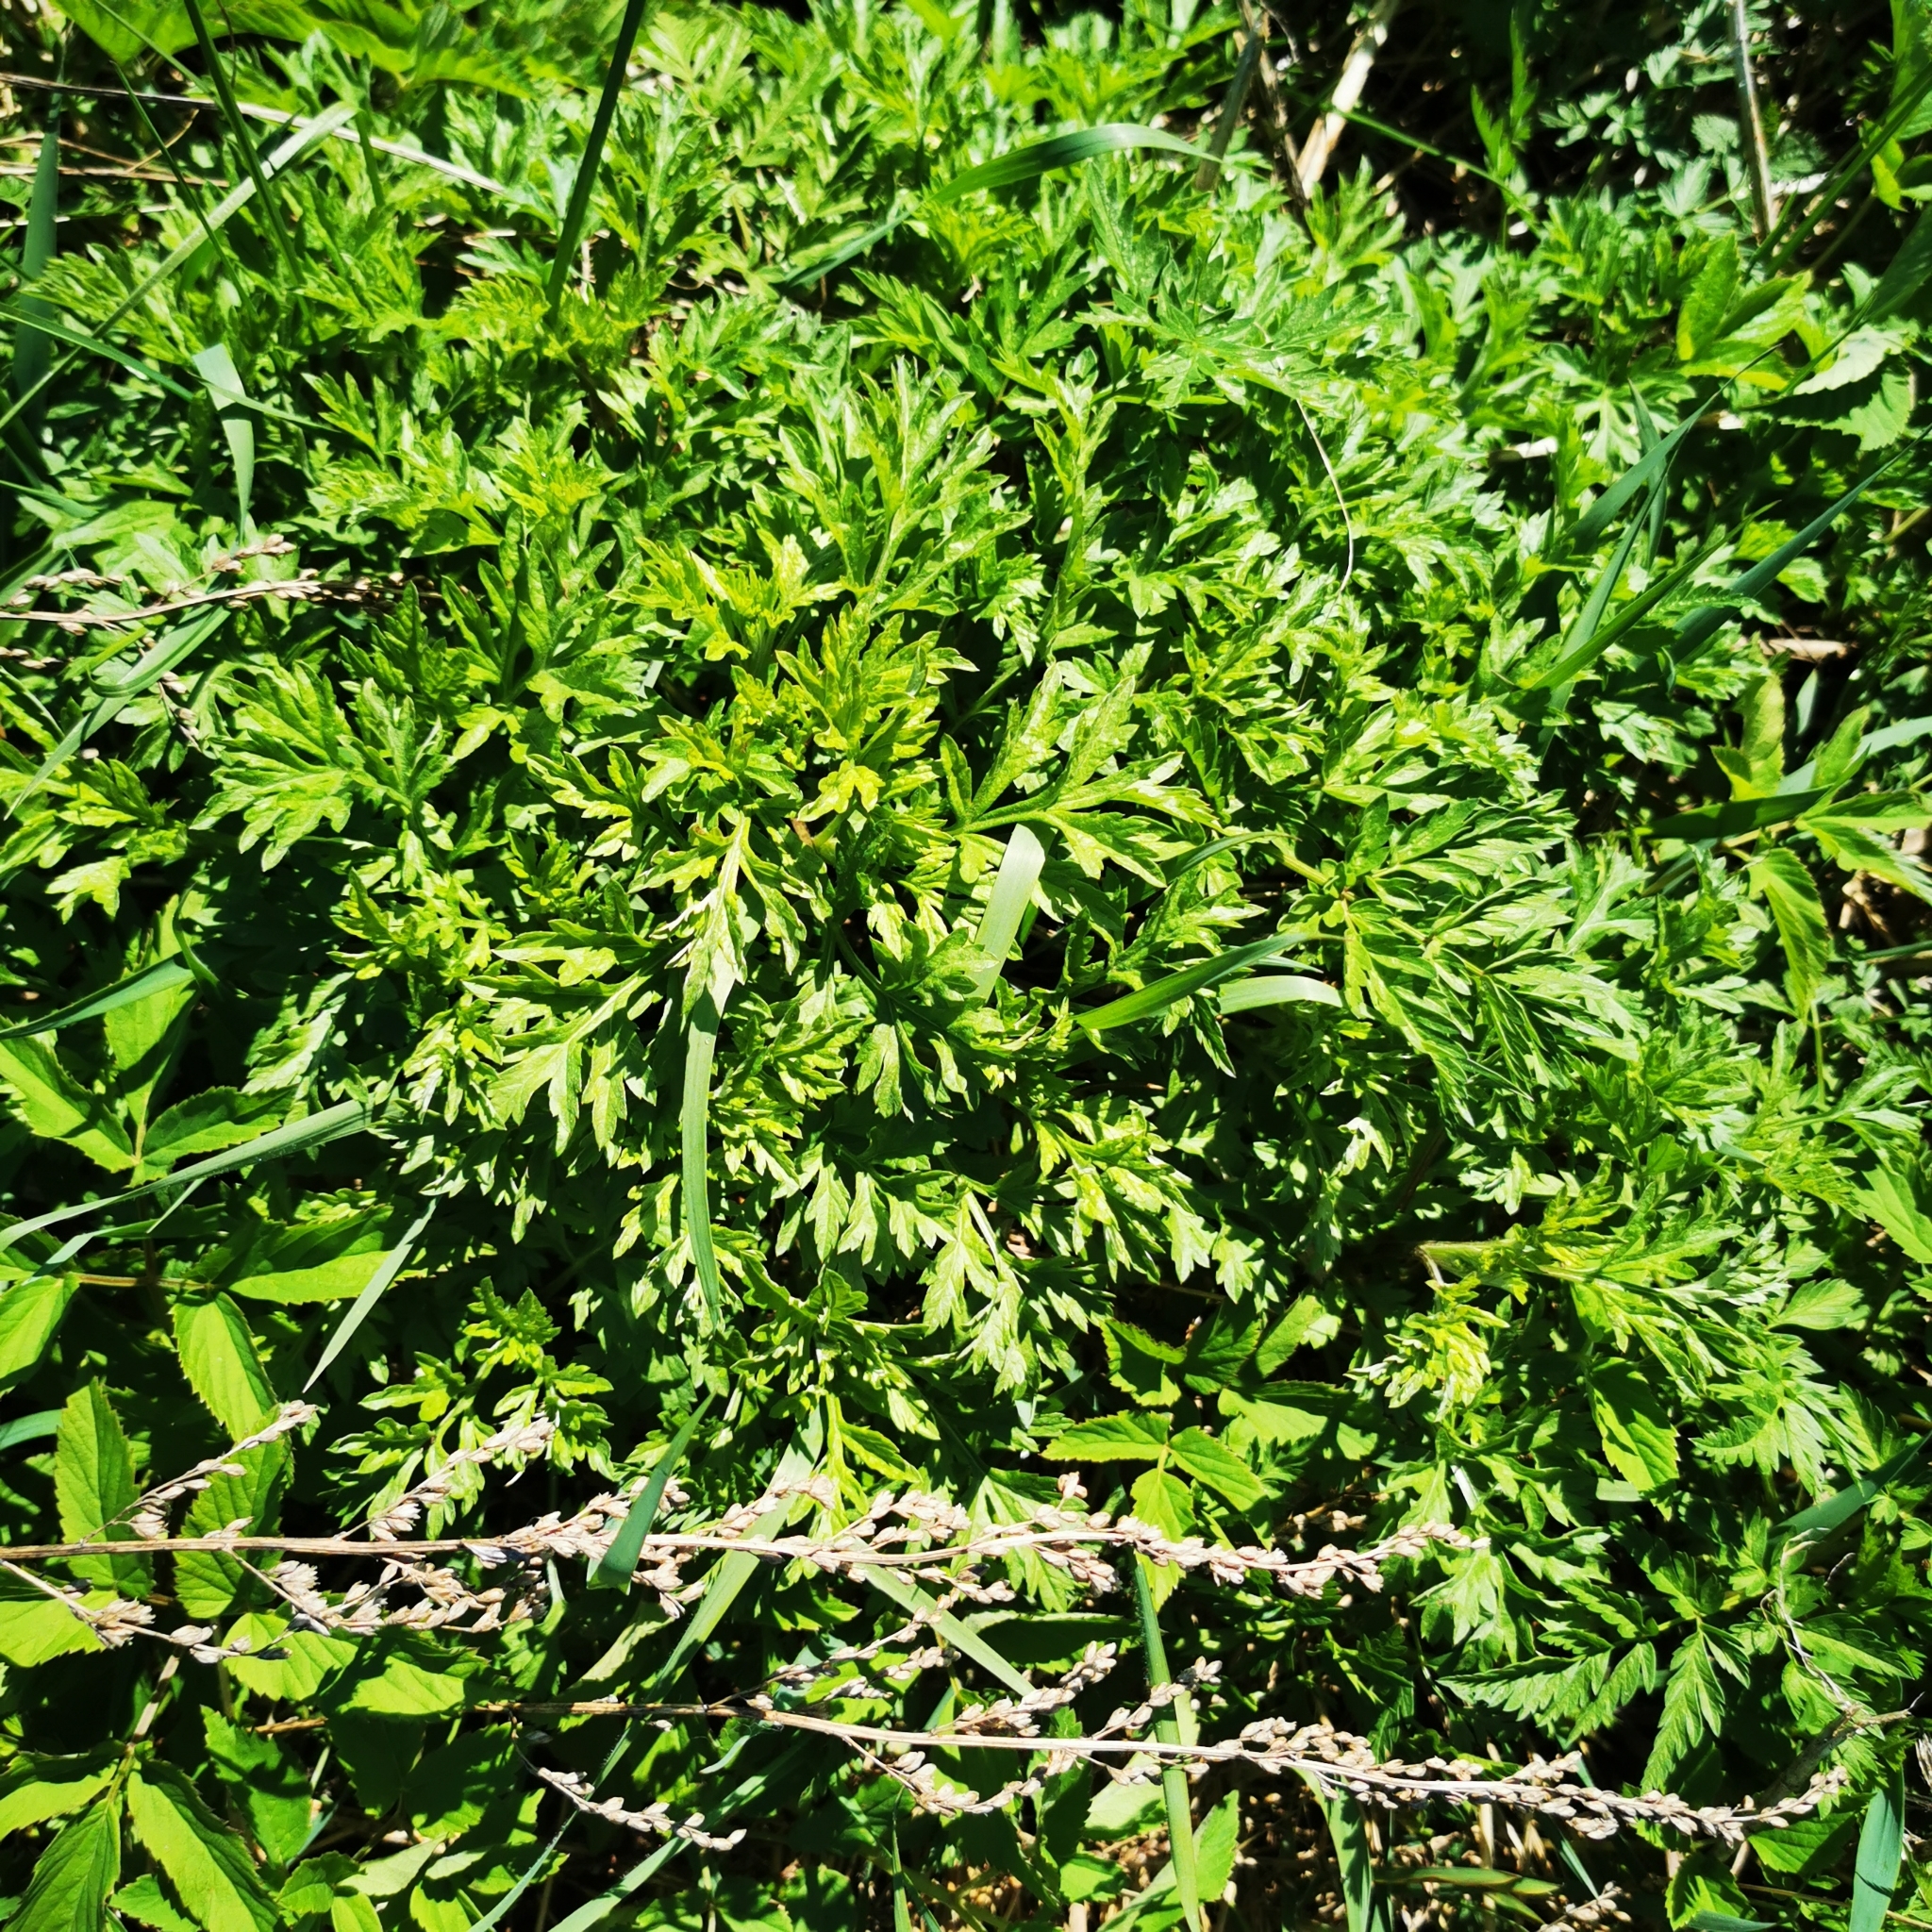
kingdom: Plantae
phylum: Tracheophyta
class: Magnoliopsida
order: Asterales
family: Asteraceae
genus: Artemisia
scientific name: Artemisia vulgaris
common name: Mugwort
